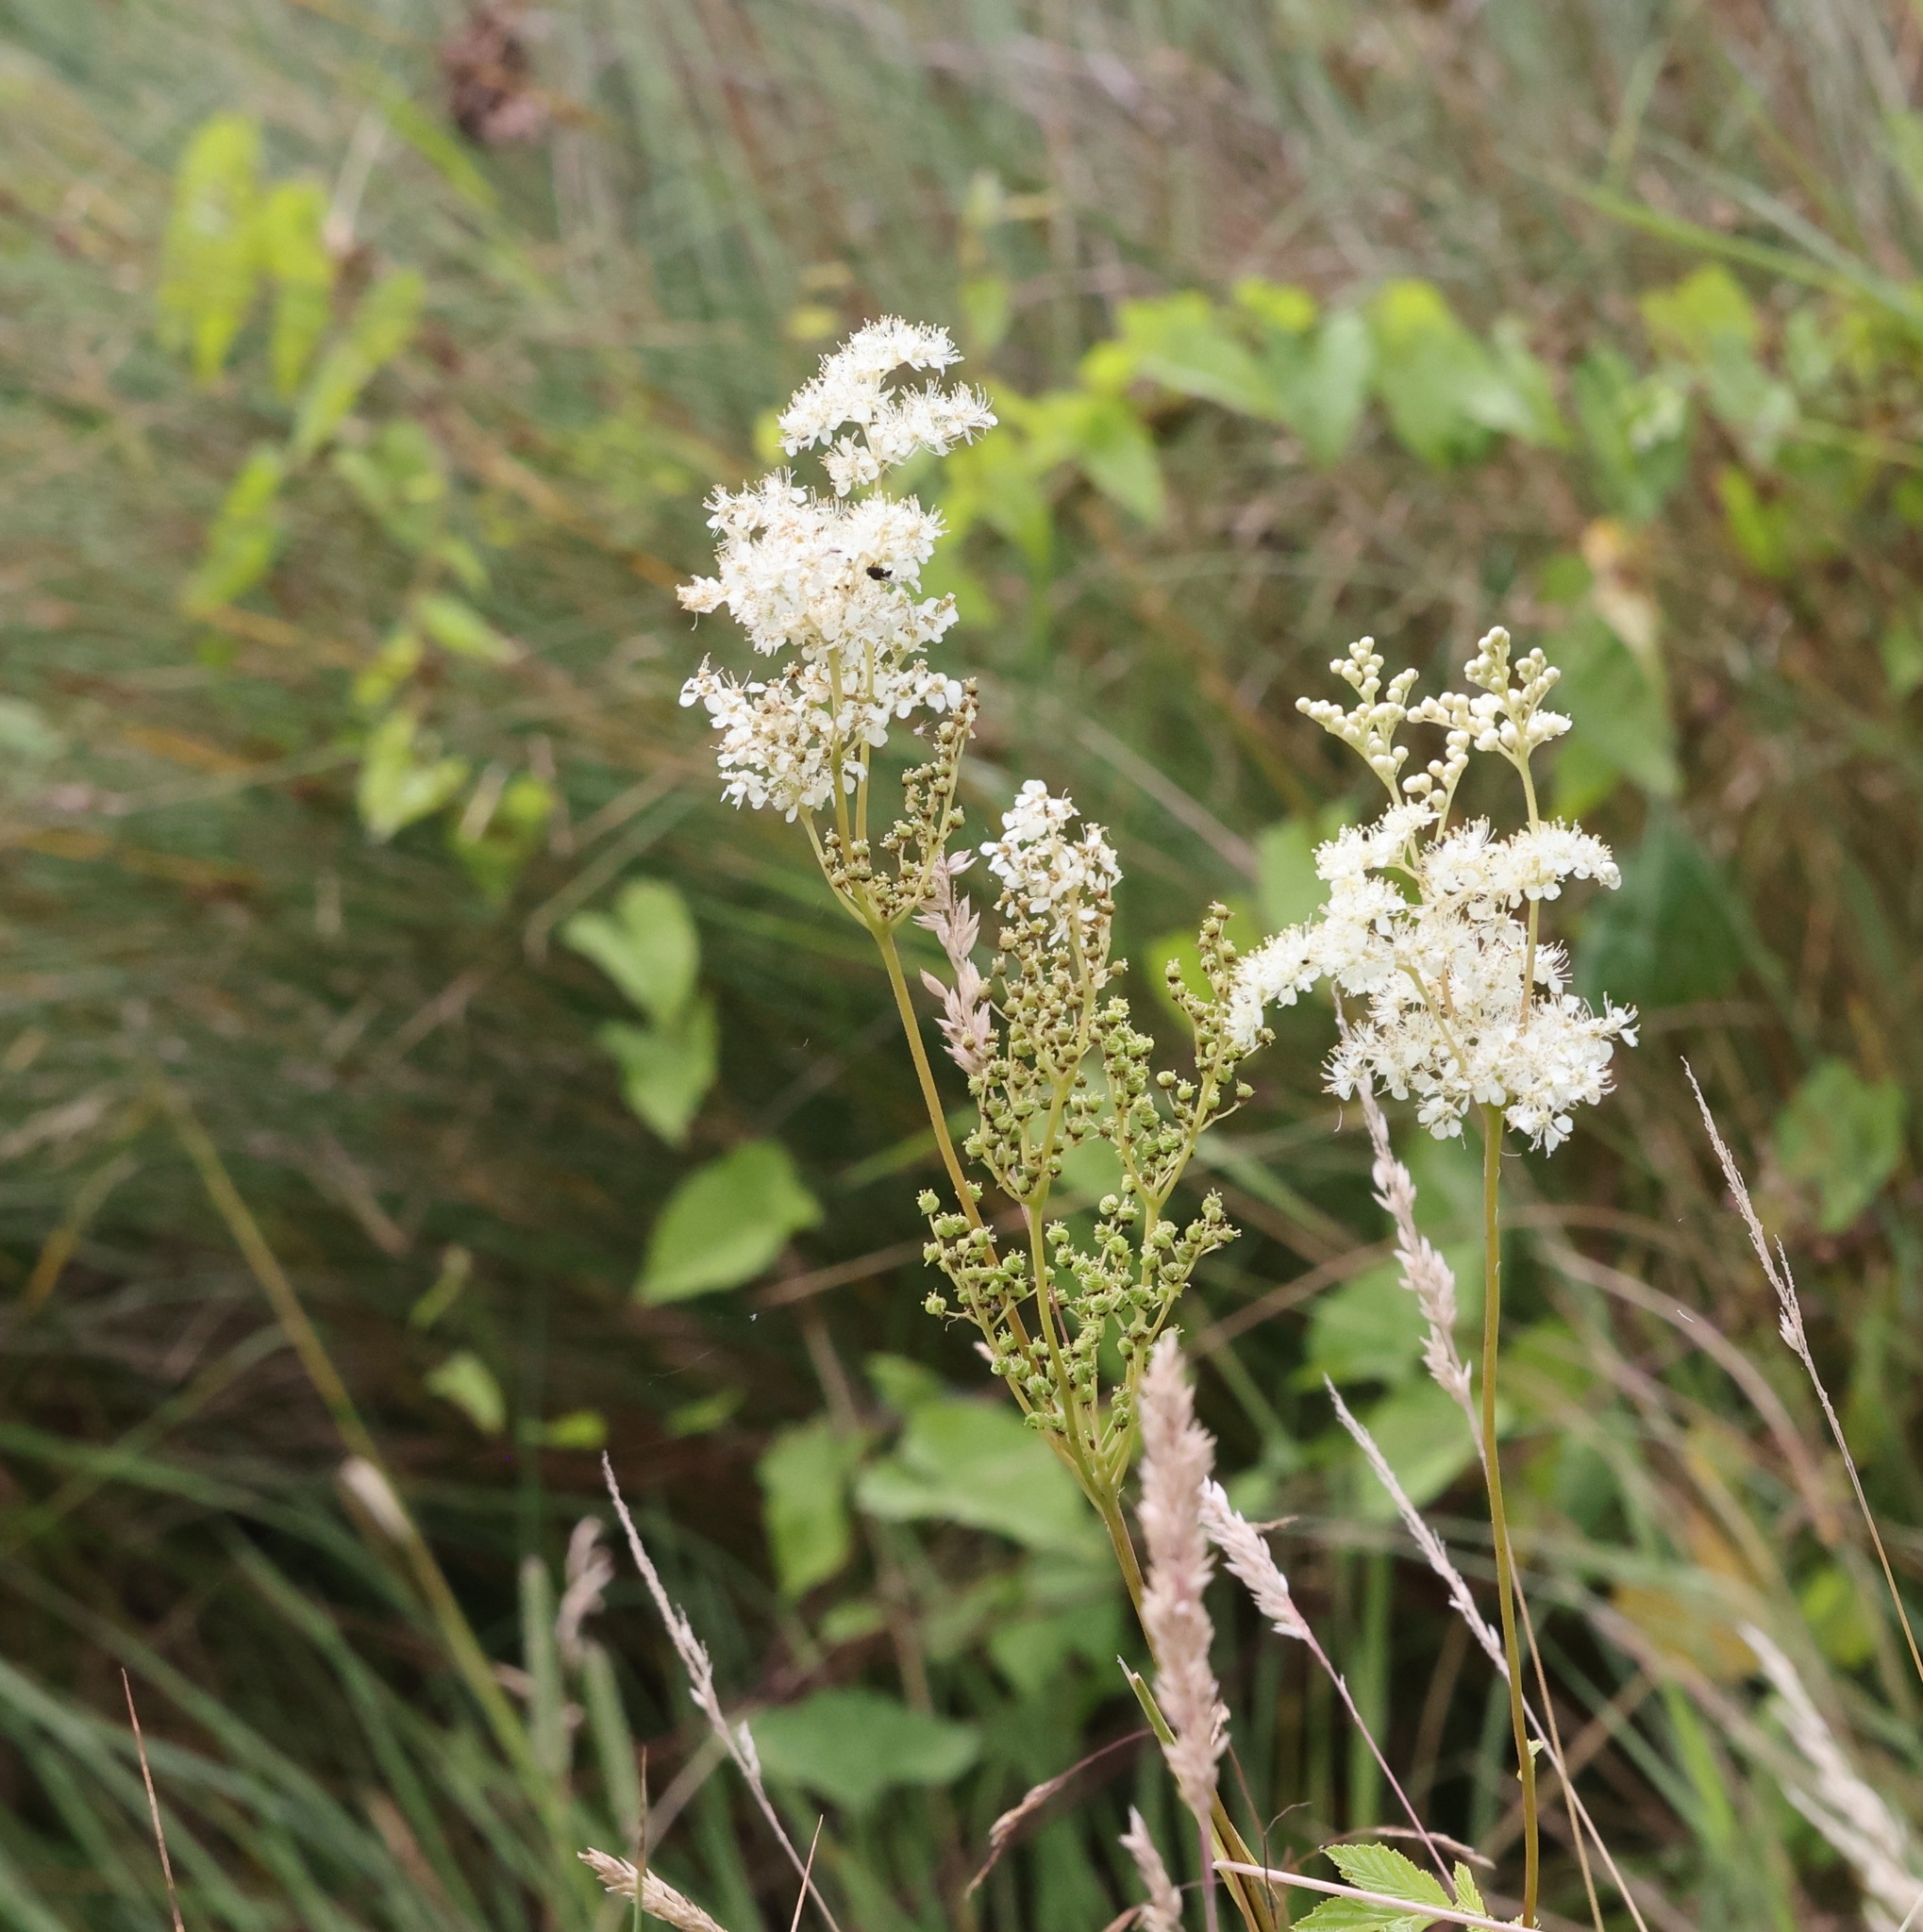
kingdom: Plantae
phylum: Tracheophyta
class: Magnoliopsida
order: Rosales
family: Rosaceae
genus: Filipendula
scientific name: Filipendula ulmaria
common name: Meadowsweet
